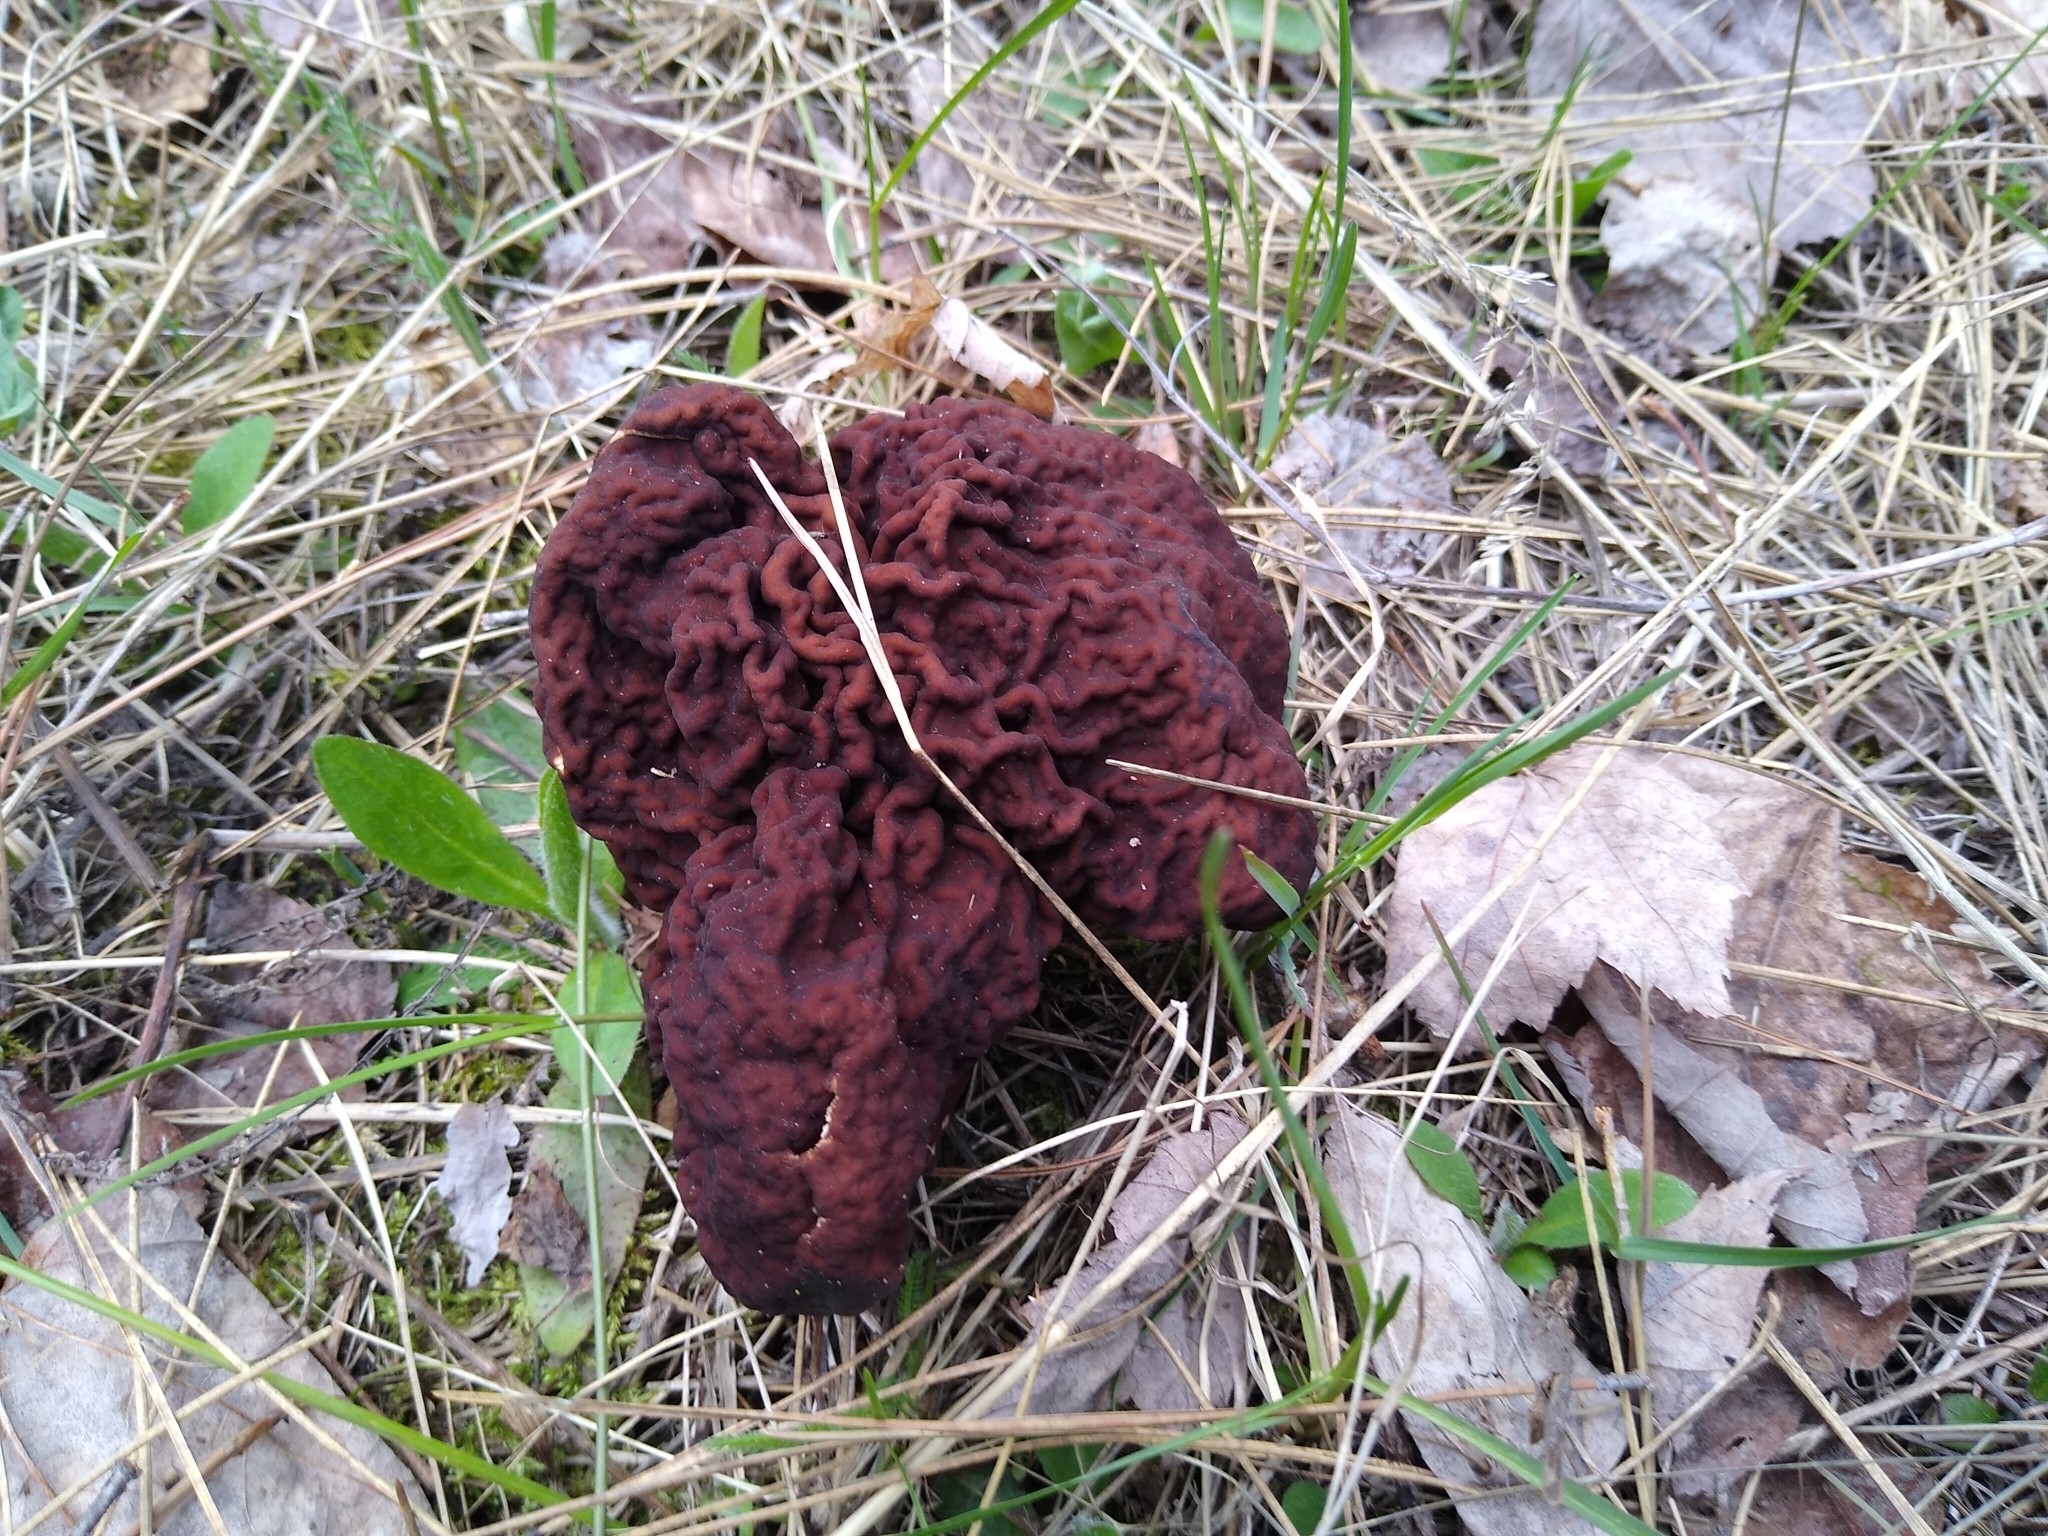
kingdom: Fungi
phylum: Ascomycota
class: Pezizomycetes
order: Pezizales
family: Discinaceae
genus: Gyromitra
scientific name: Gyromitra esculenta
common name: False morel
